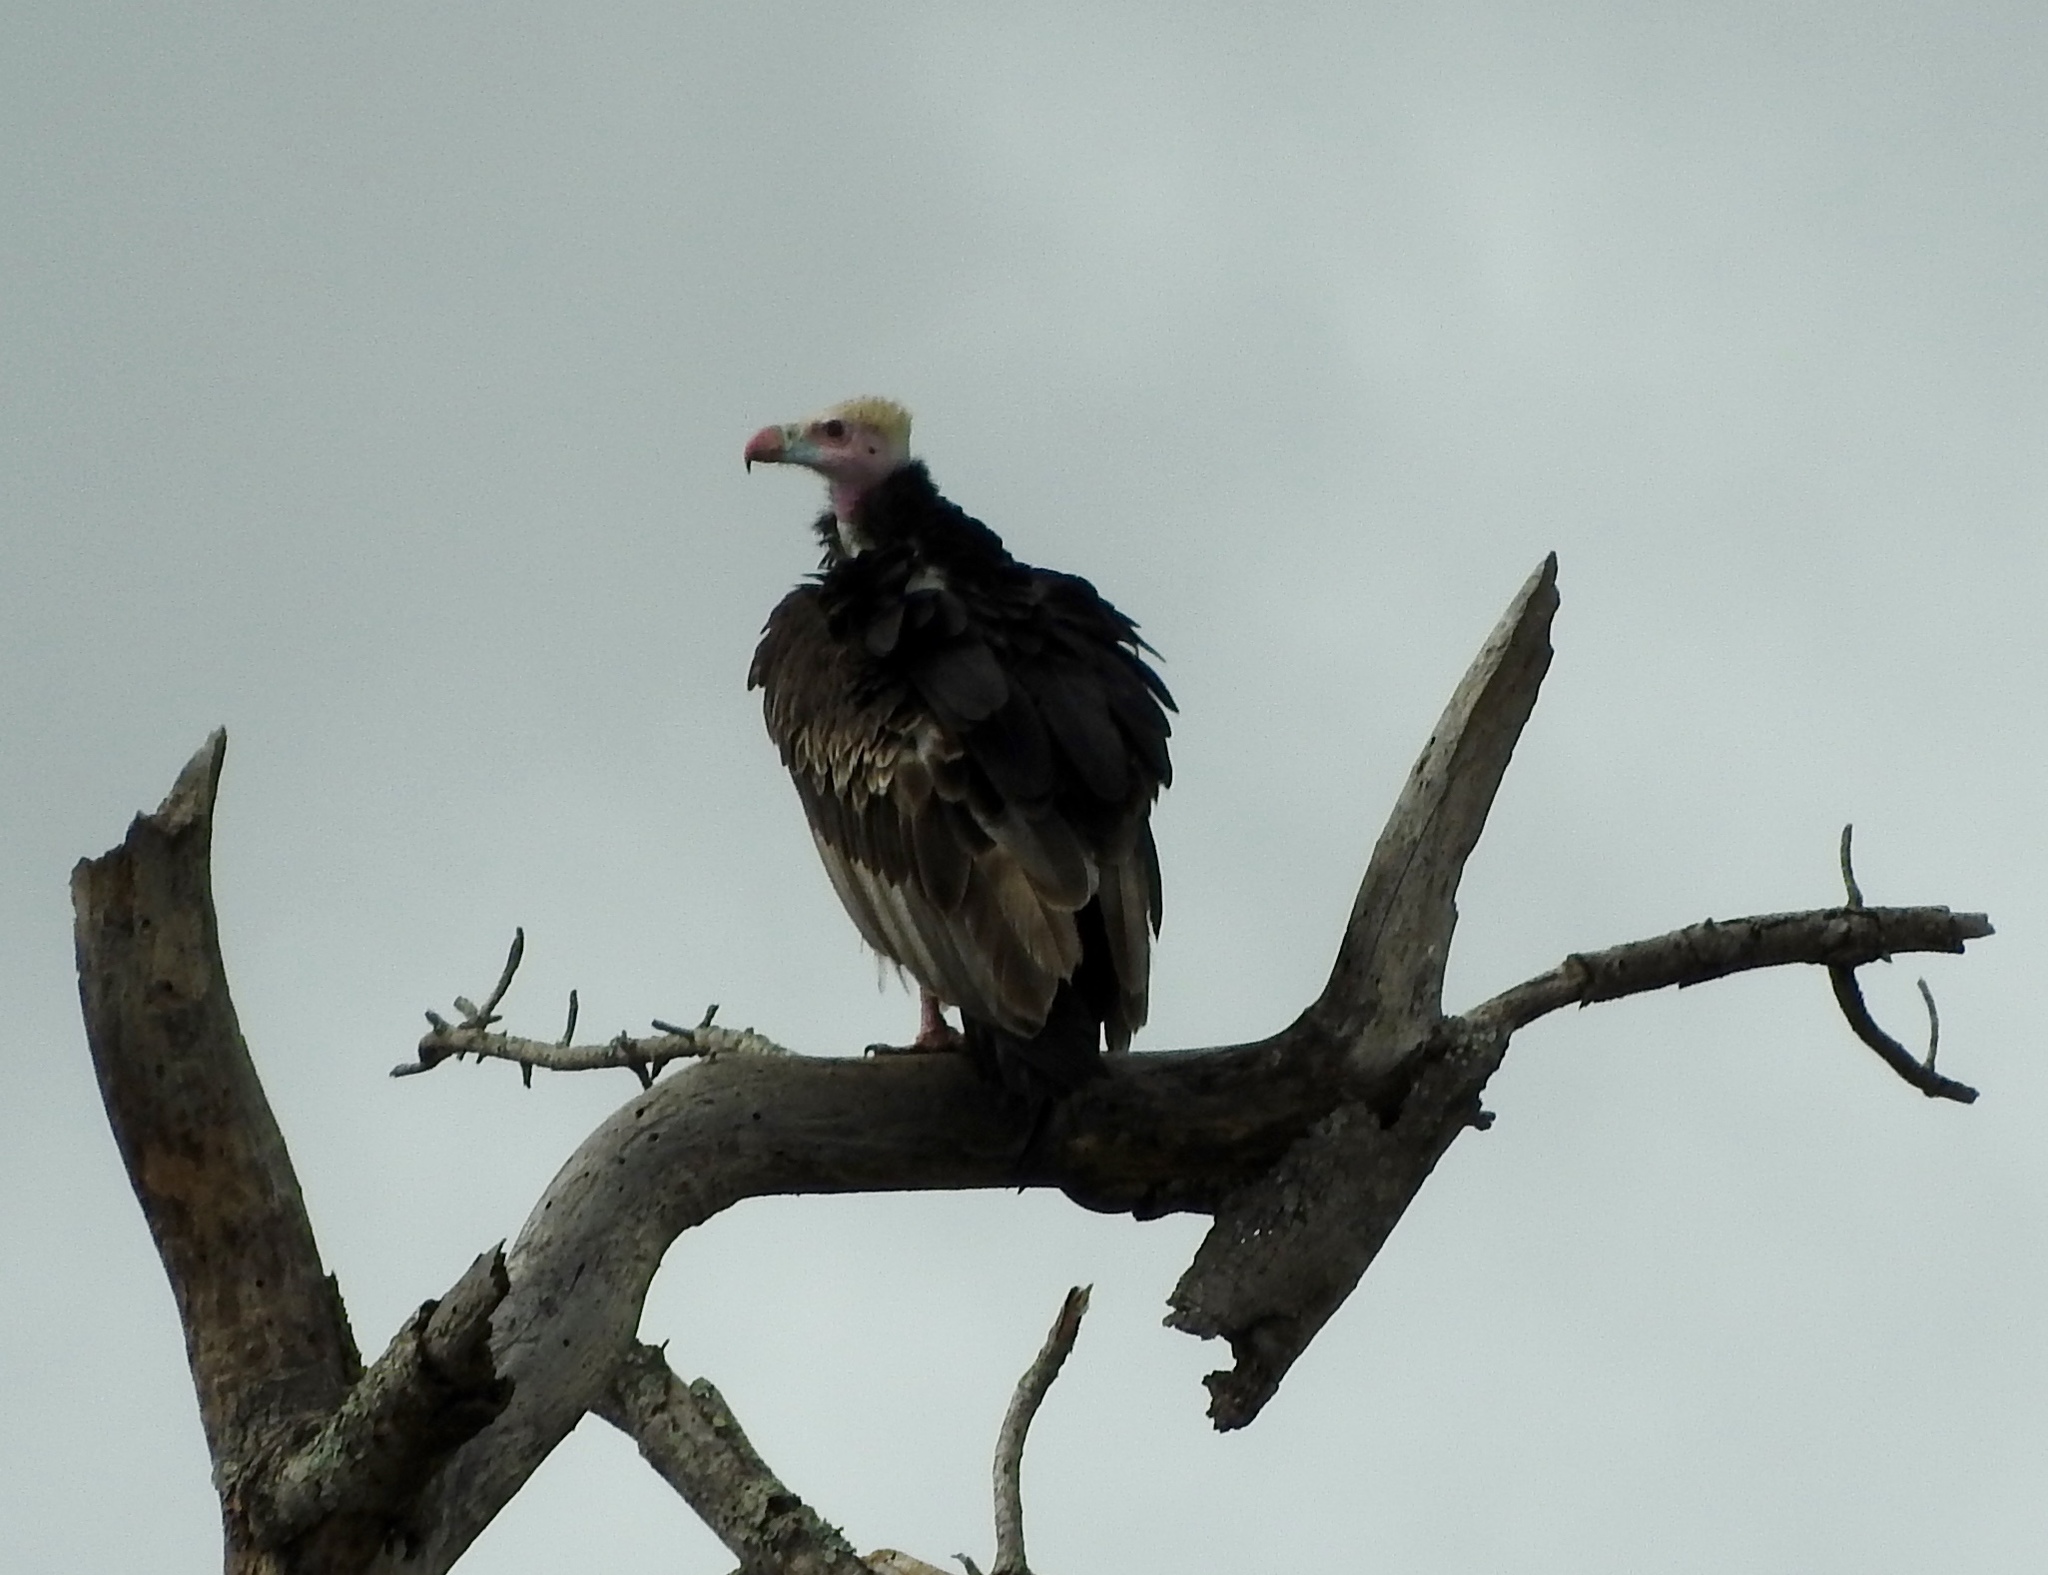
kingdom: Animalia
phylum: Chordata
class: Aves
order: Accipitriformes
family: Accipitridae
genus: Trigonoceps
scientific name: Trigonoceps occipitalis
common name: White-headed vulture
